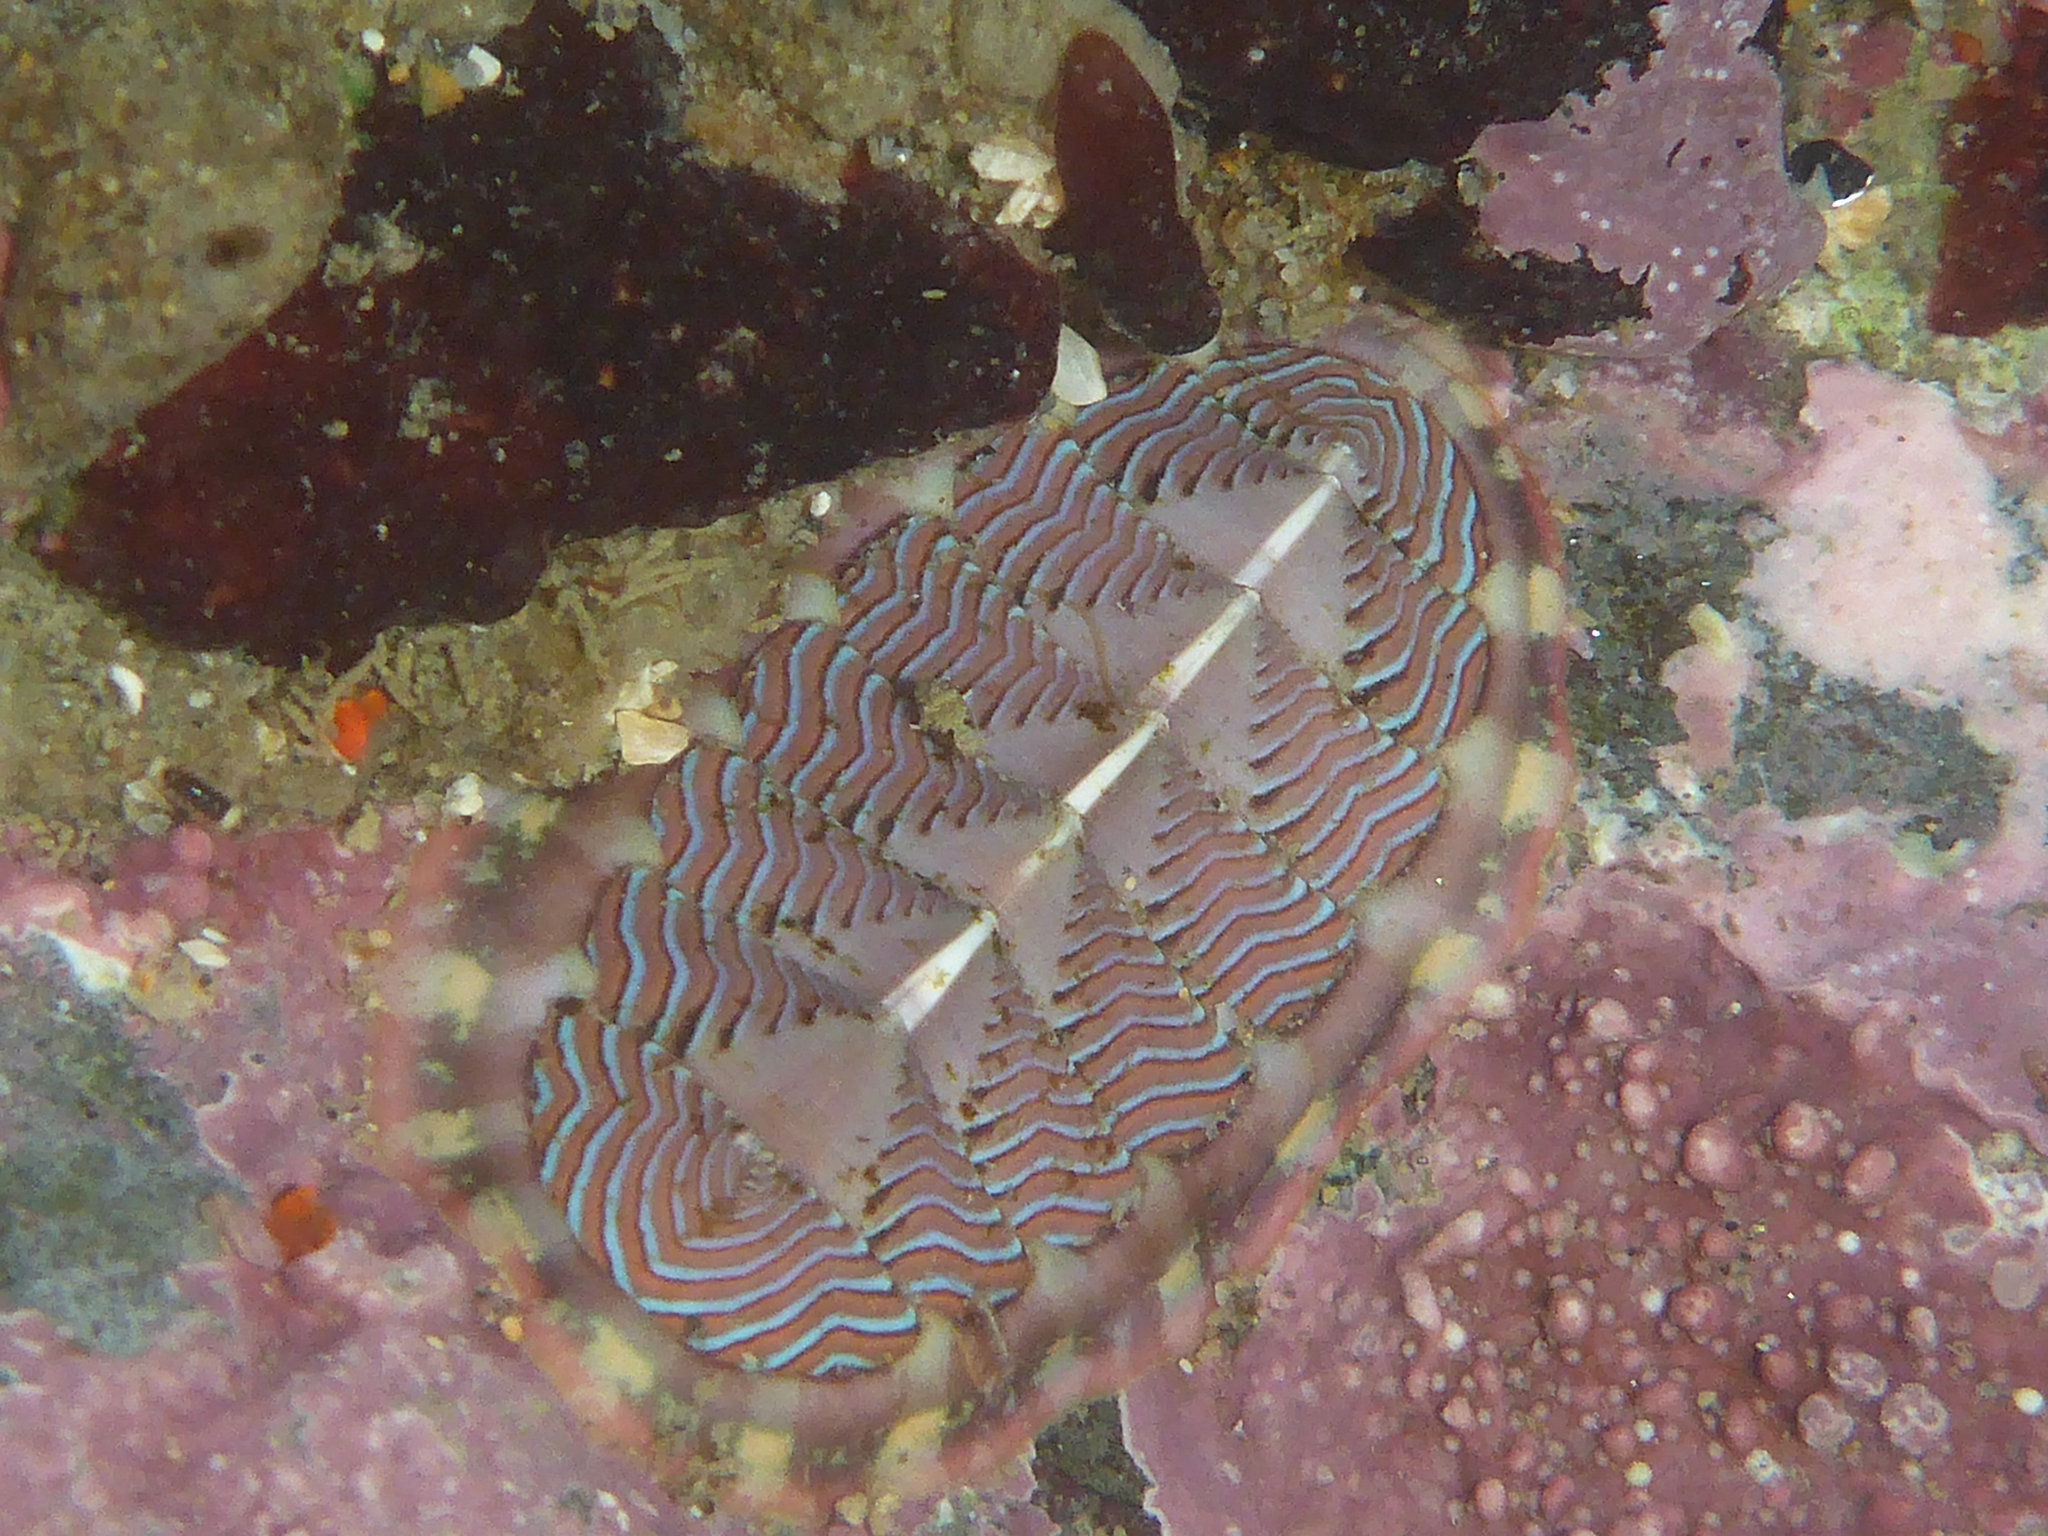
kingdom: Animalia
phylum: Mollusca
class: Polyplacophora
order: Chitonida
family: Tonicellidae
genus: Tonicella
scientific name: Tonicella lineata
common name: Lined chiton
